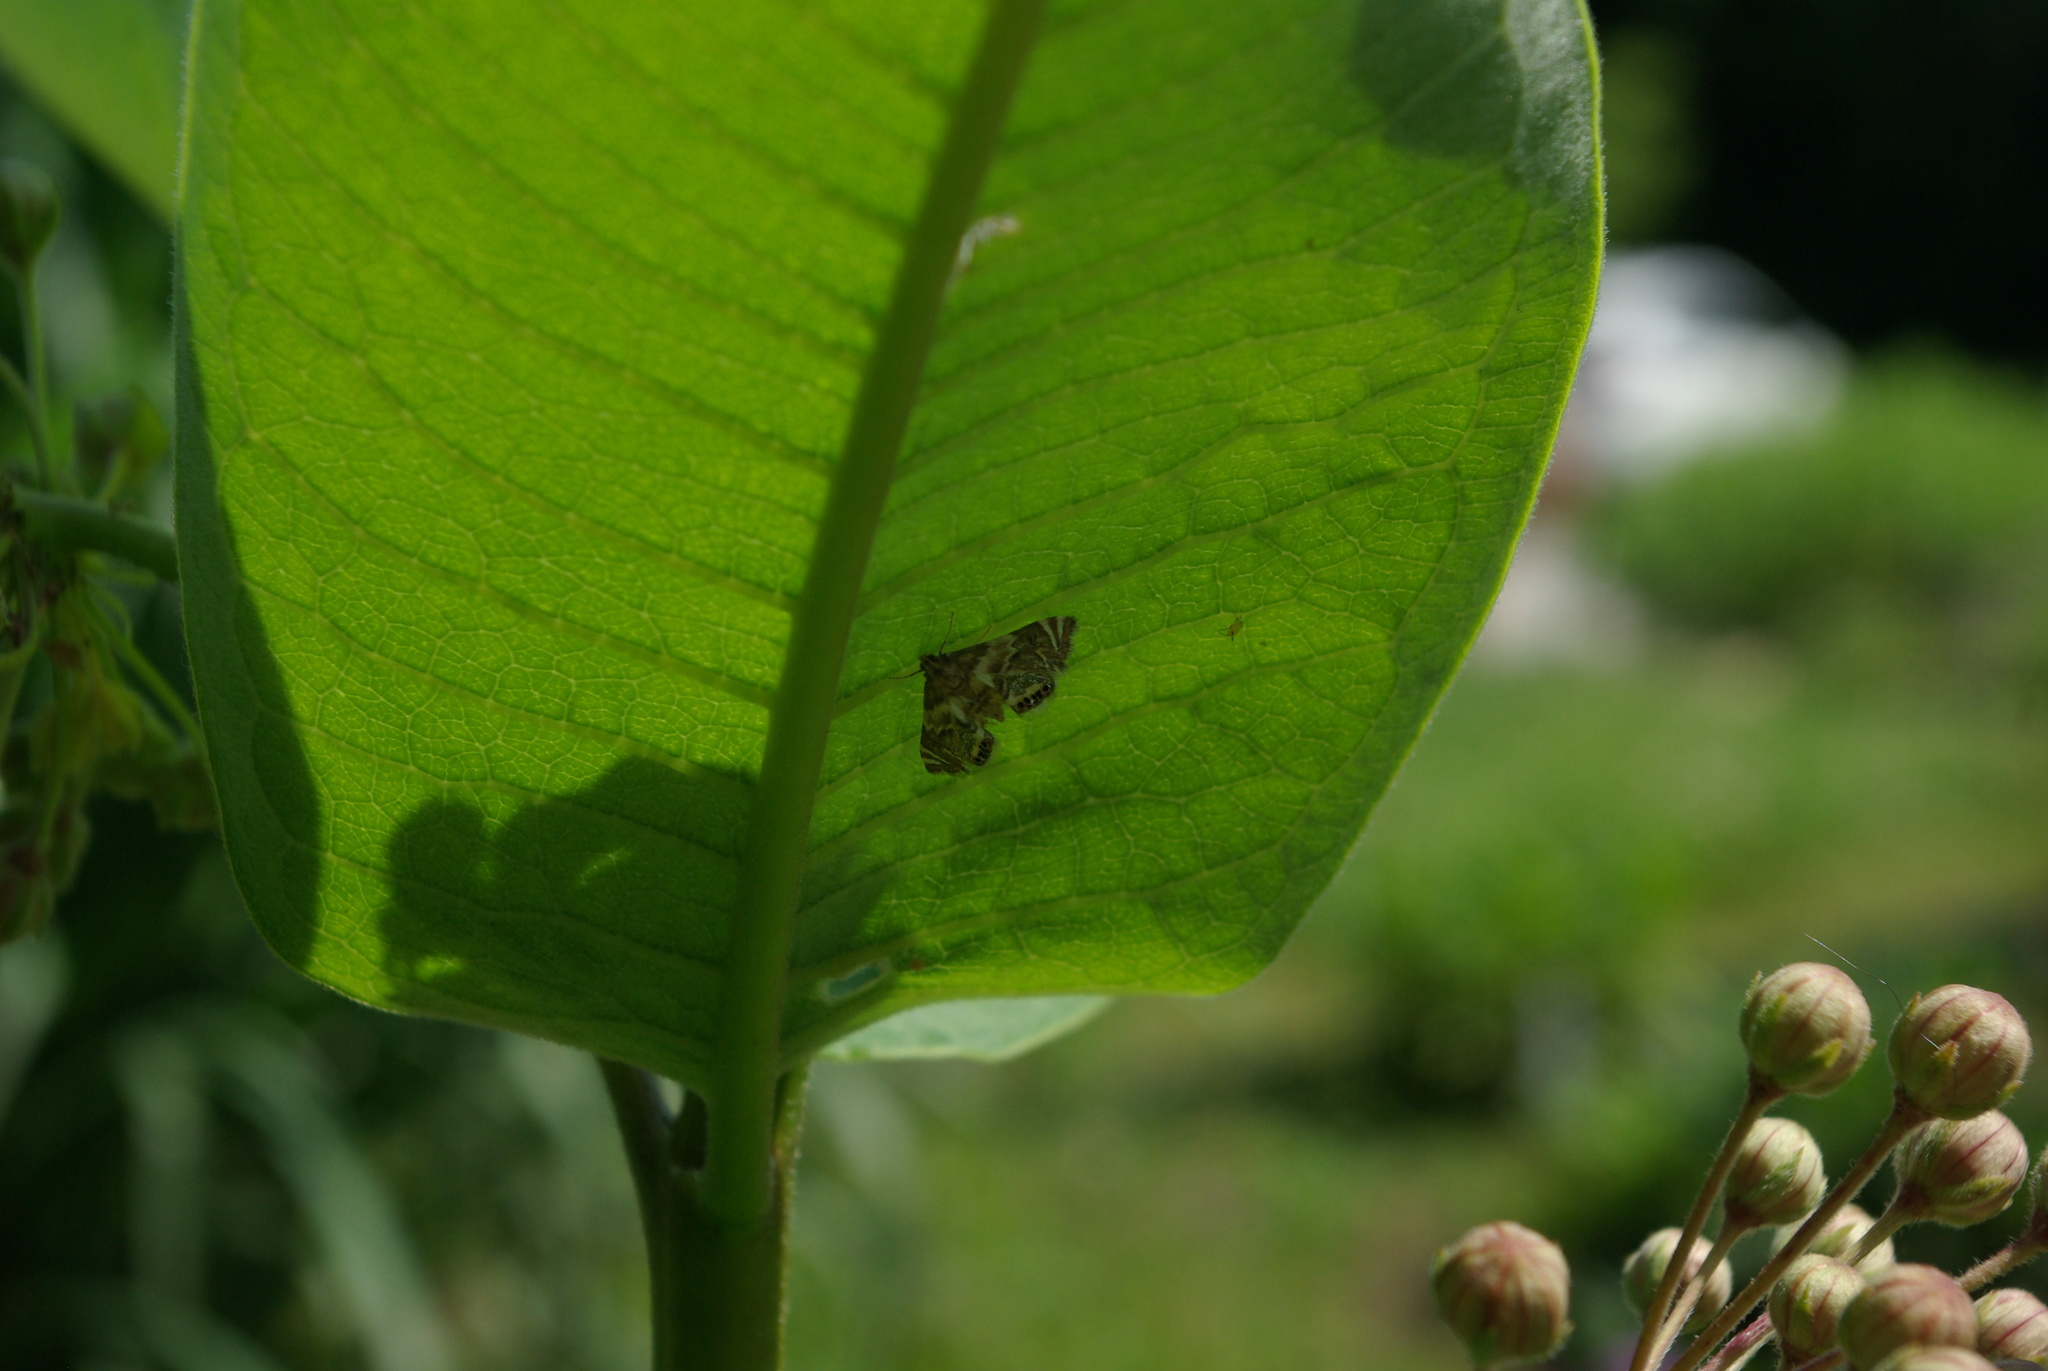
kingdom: Animalia
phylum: Arthropoda
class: Insecta
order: Lepidoptera
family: Crambidae
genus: Petrophila
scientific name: Petrophila hodgesi
